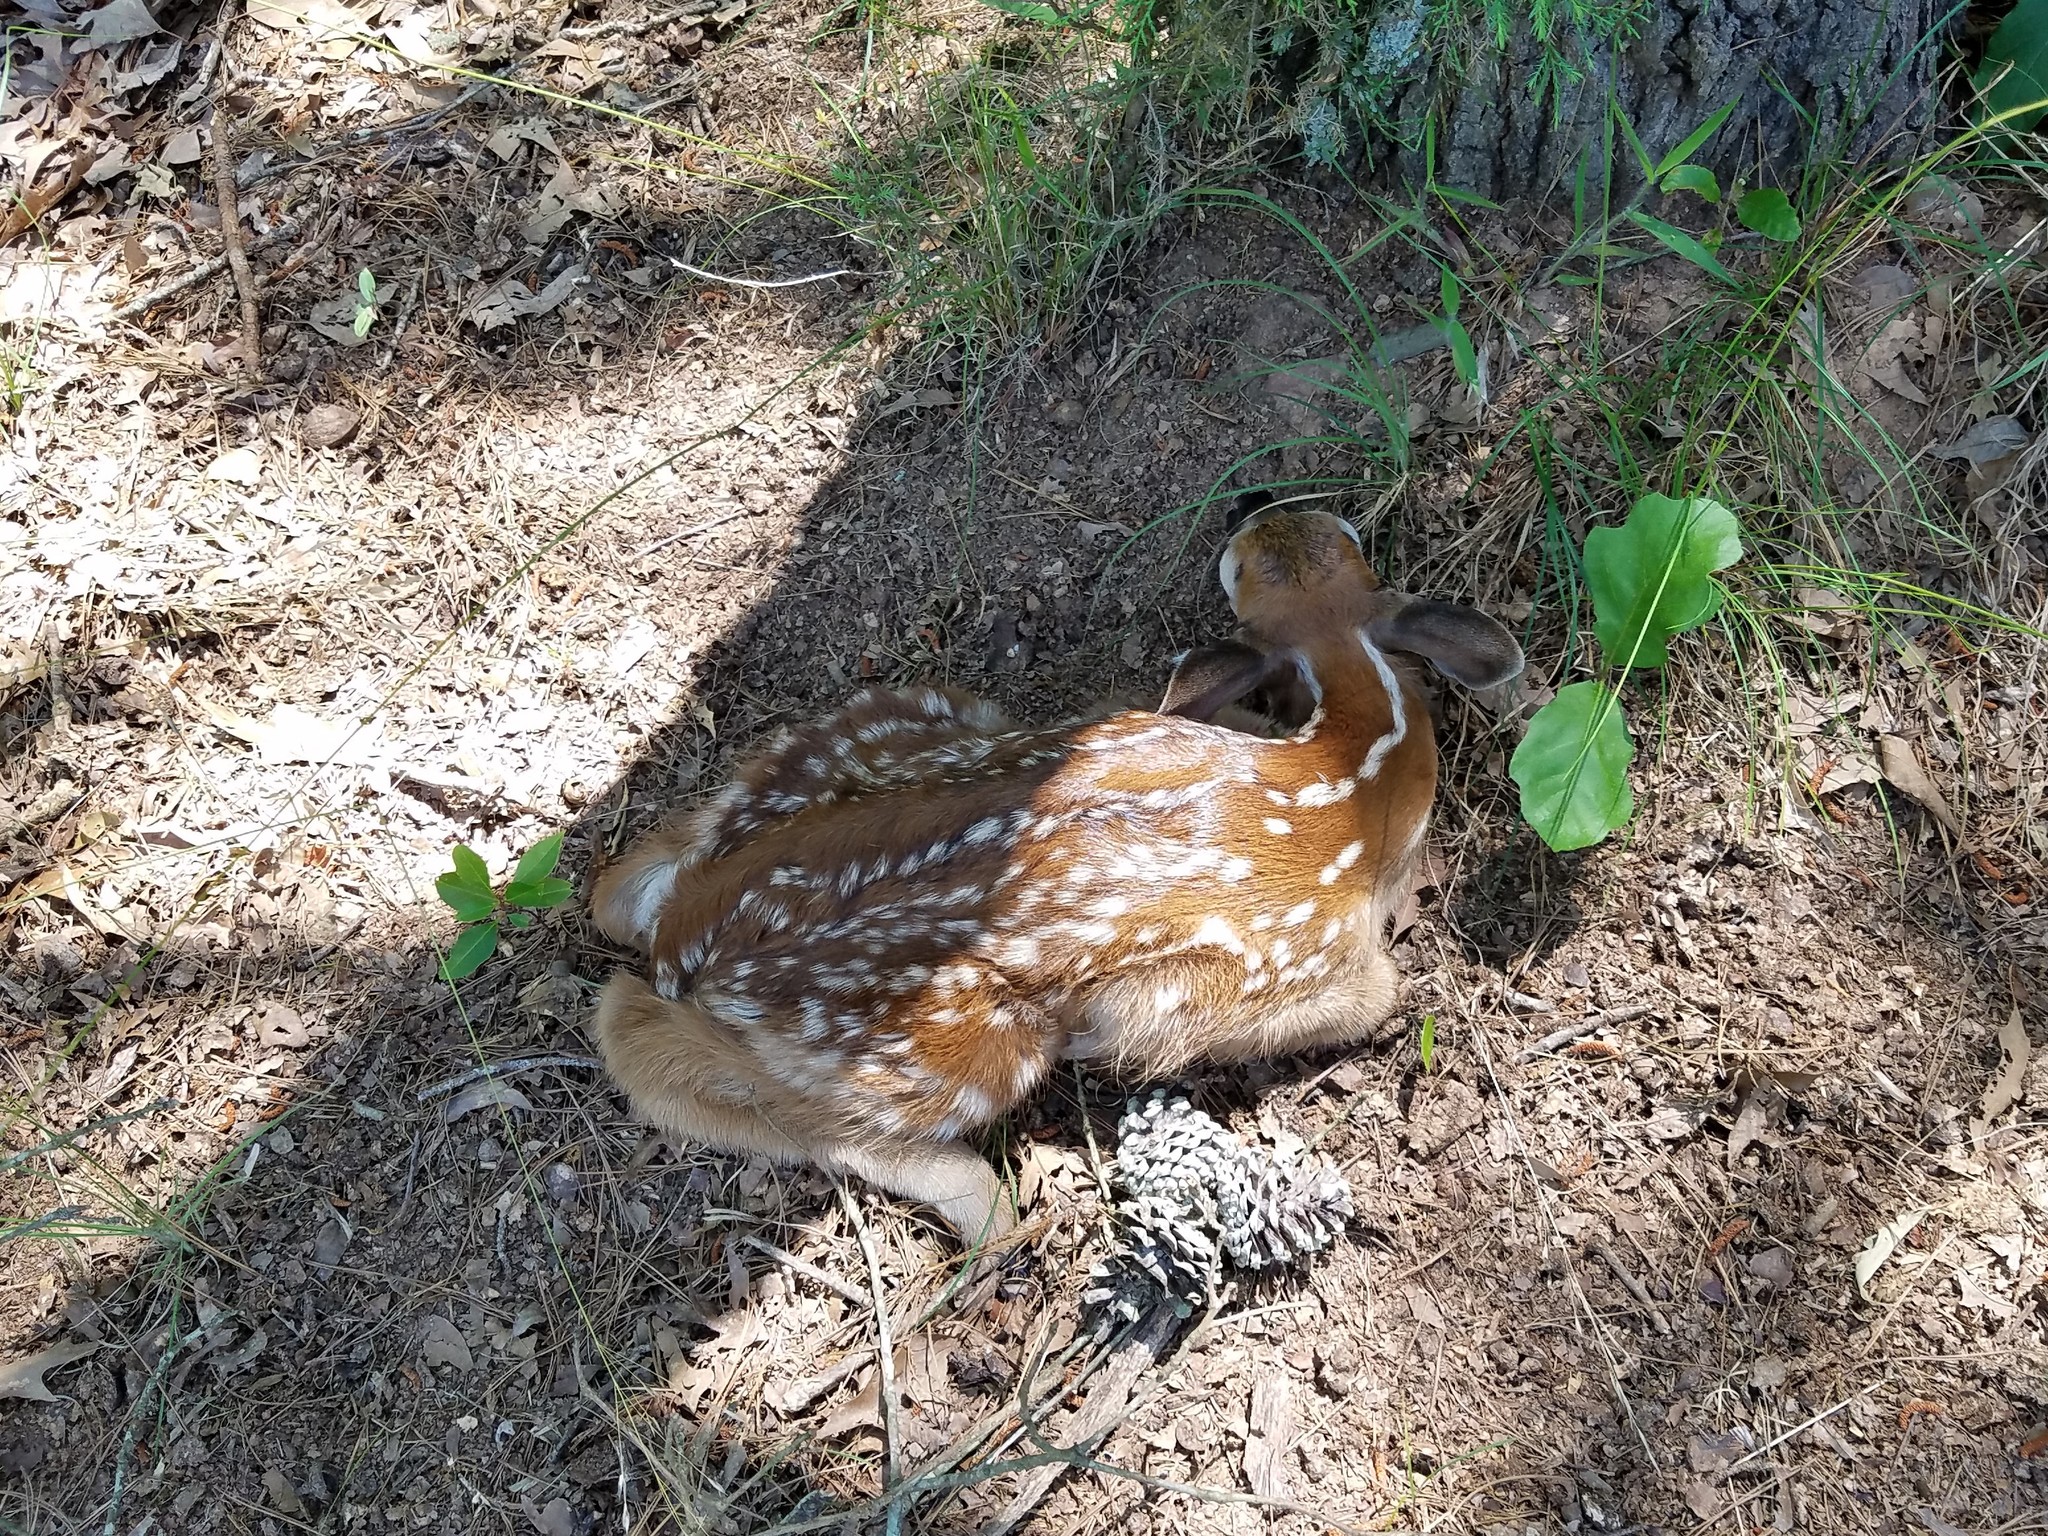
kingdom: Animalia
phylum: Chordata
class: Mammalia
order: Artiodactyla
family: Cervidae
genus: Odocoileus
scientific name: Odocoileus virginianus
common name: White-tailed deer
